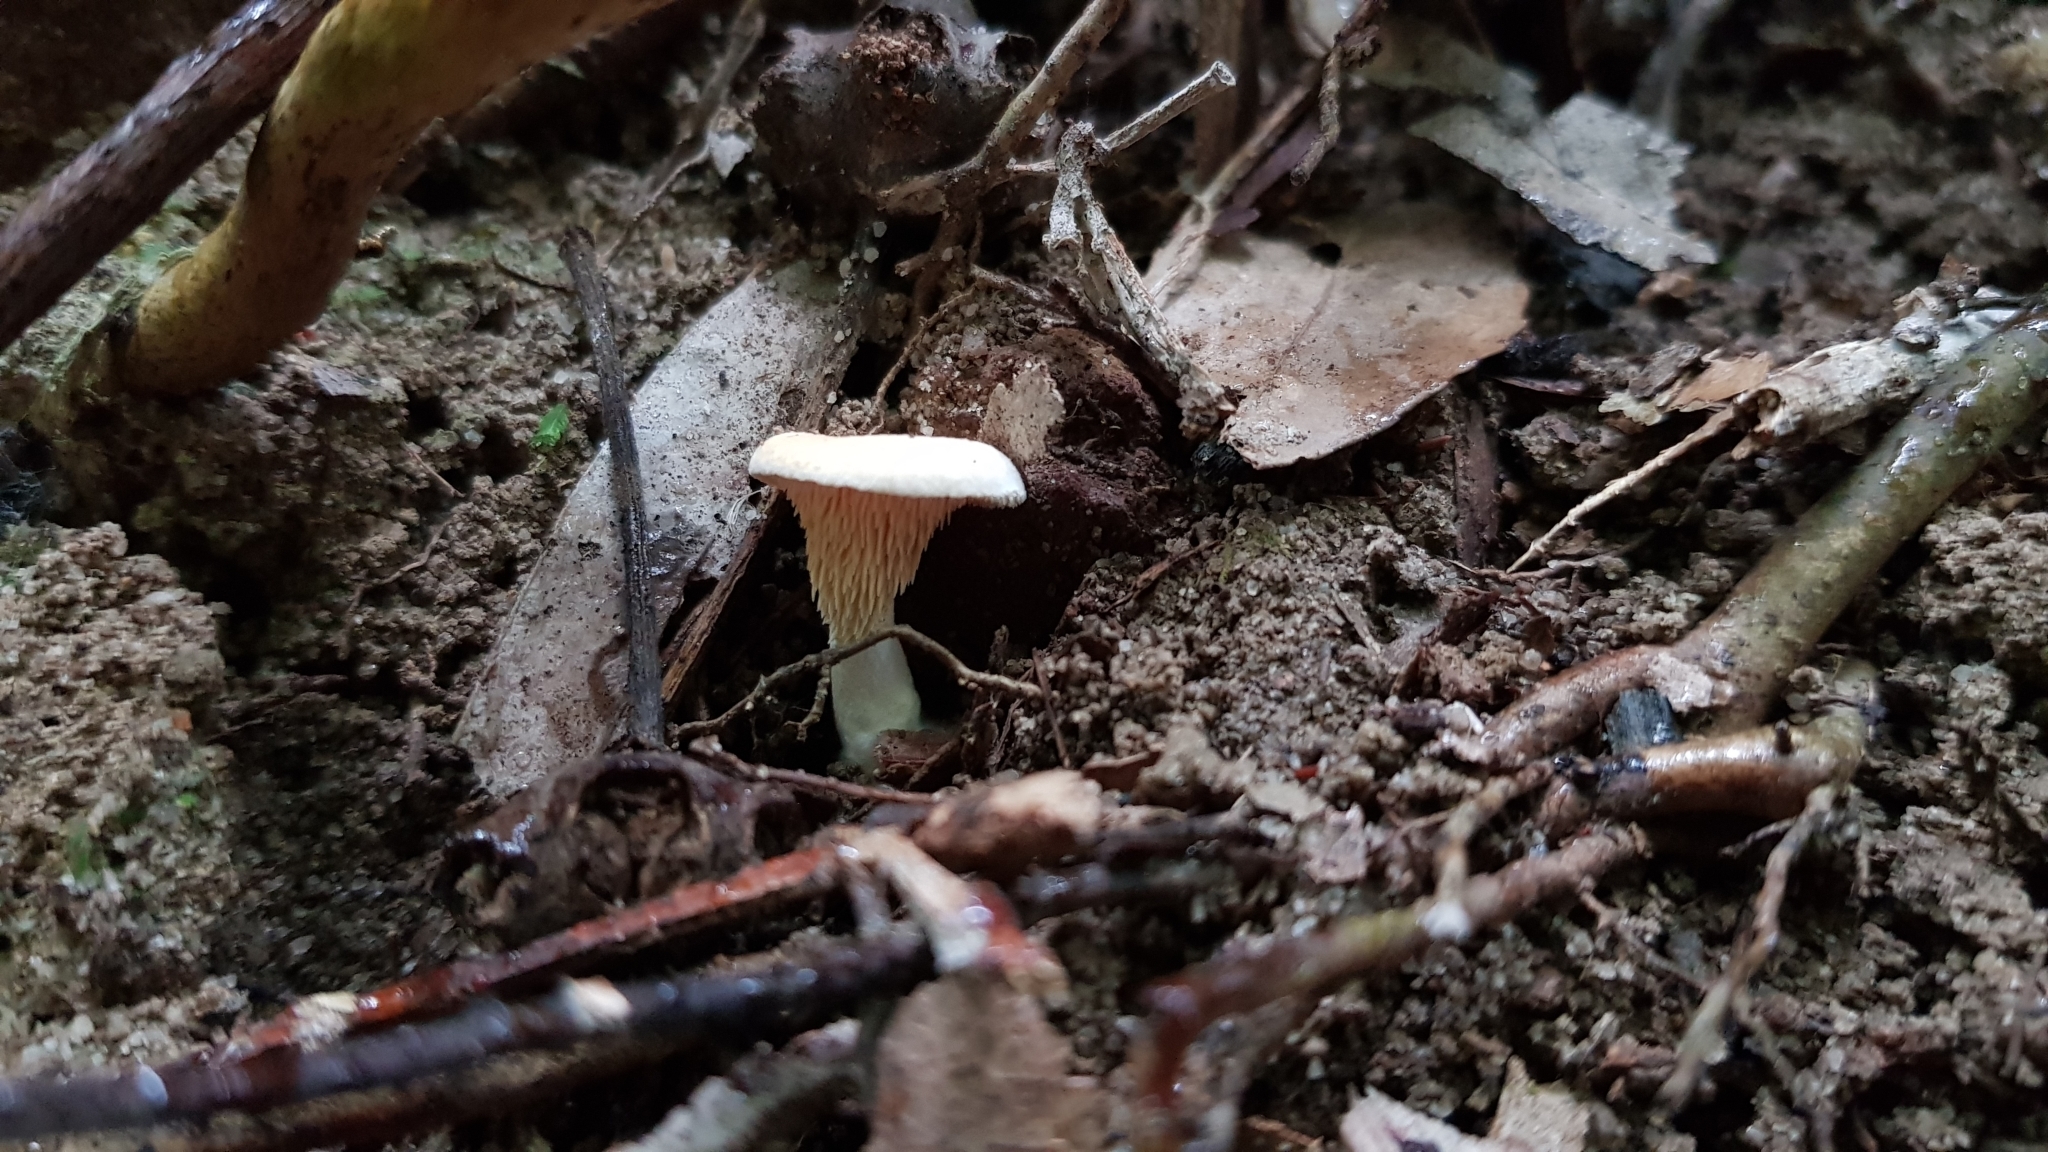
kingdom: Fungi
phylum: Basidiomycota
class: Agaricomycetes
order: Cantharellales
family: Hydnaceae
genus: Hydnum
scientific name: Hydnum ambustum
